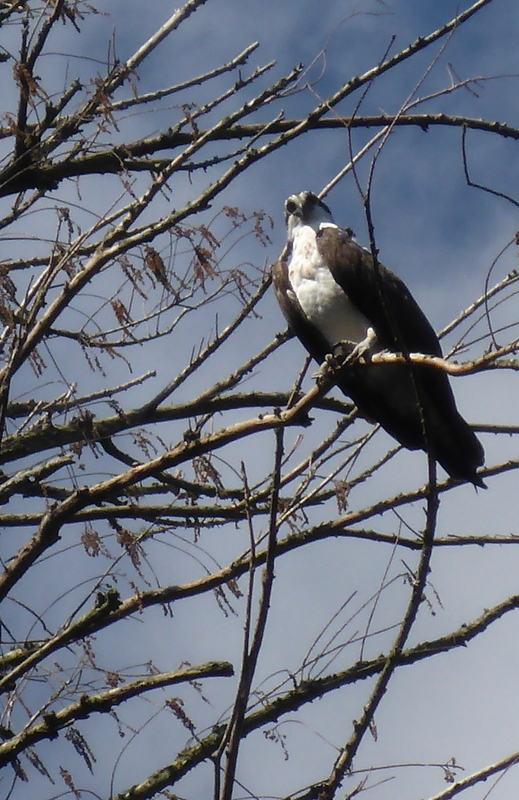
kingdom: Animalia
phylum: Chordata
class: Aves
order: Accipitriformes
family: Pandionidae
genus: Pandion
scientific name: Pandion haliaetus
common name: Osprey
